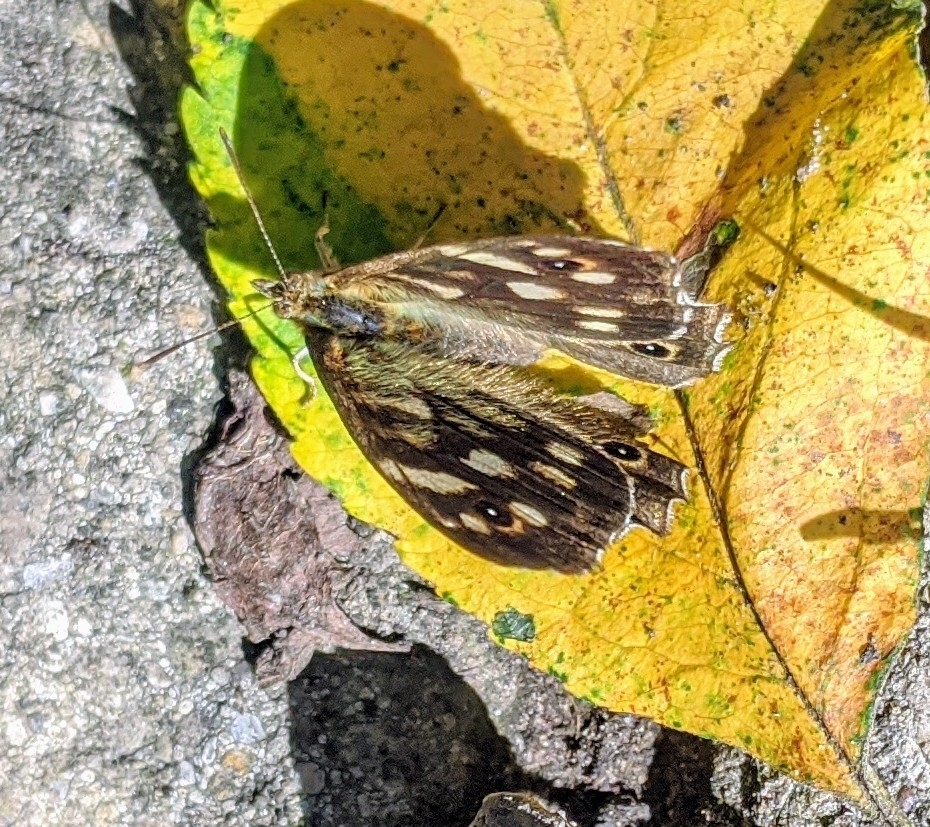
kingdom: Animalia
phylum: Arthropoda
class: Insecta
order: Lepidoptera
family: Nymphalidae
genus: Pararge
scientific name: Pararge aegeria
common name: Speckled wood
